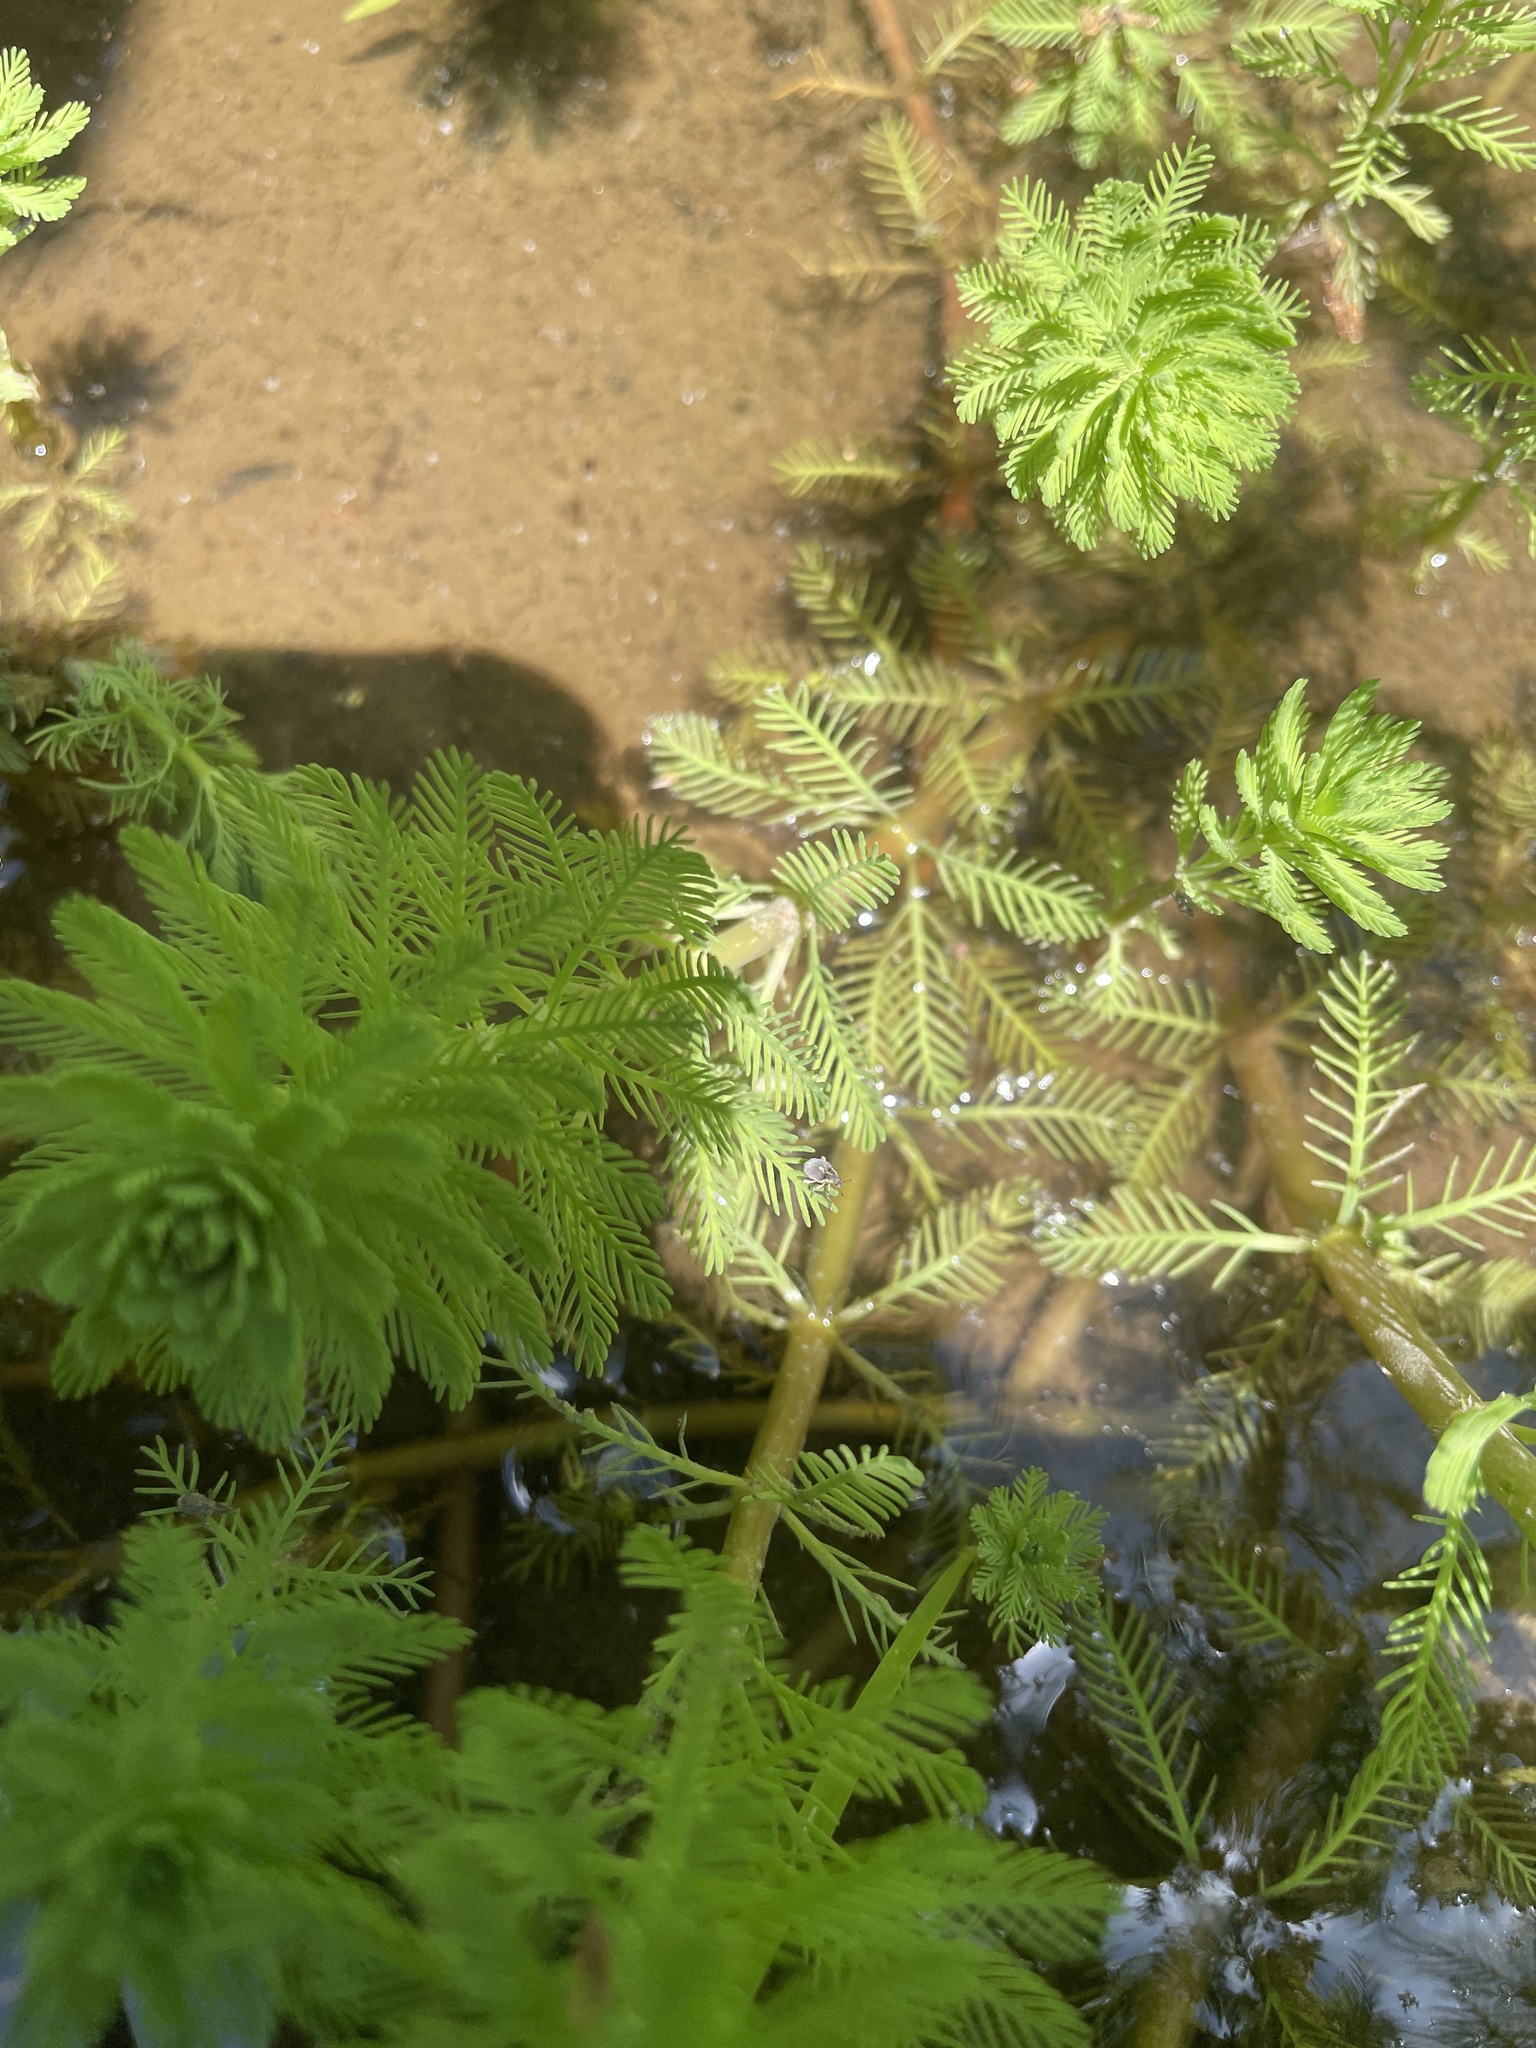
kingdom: Plantae
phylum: Tracheophyta
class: Magnoliopsida
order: Saxifragales
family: Haloragaceae
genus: Myriophyllum
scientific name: Myriophyllum aquaticum
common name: Parrot's feather
